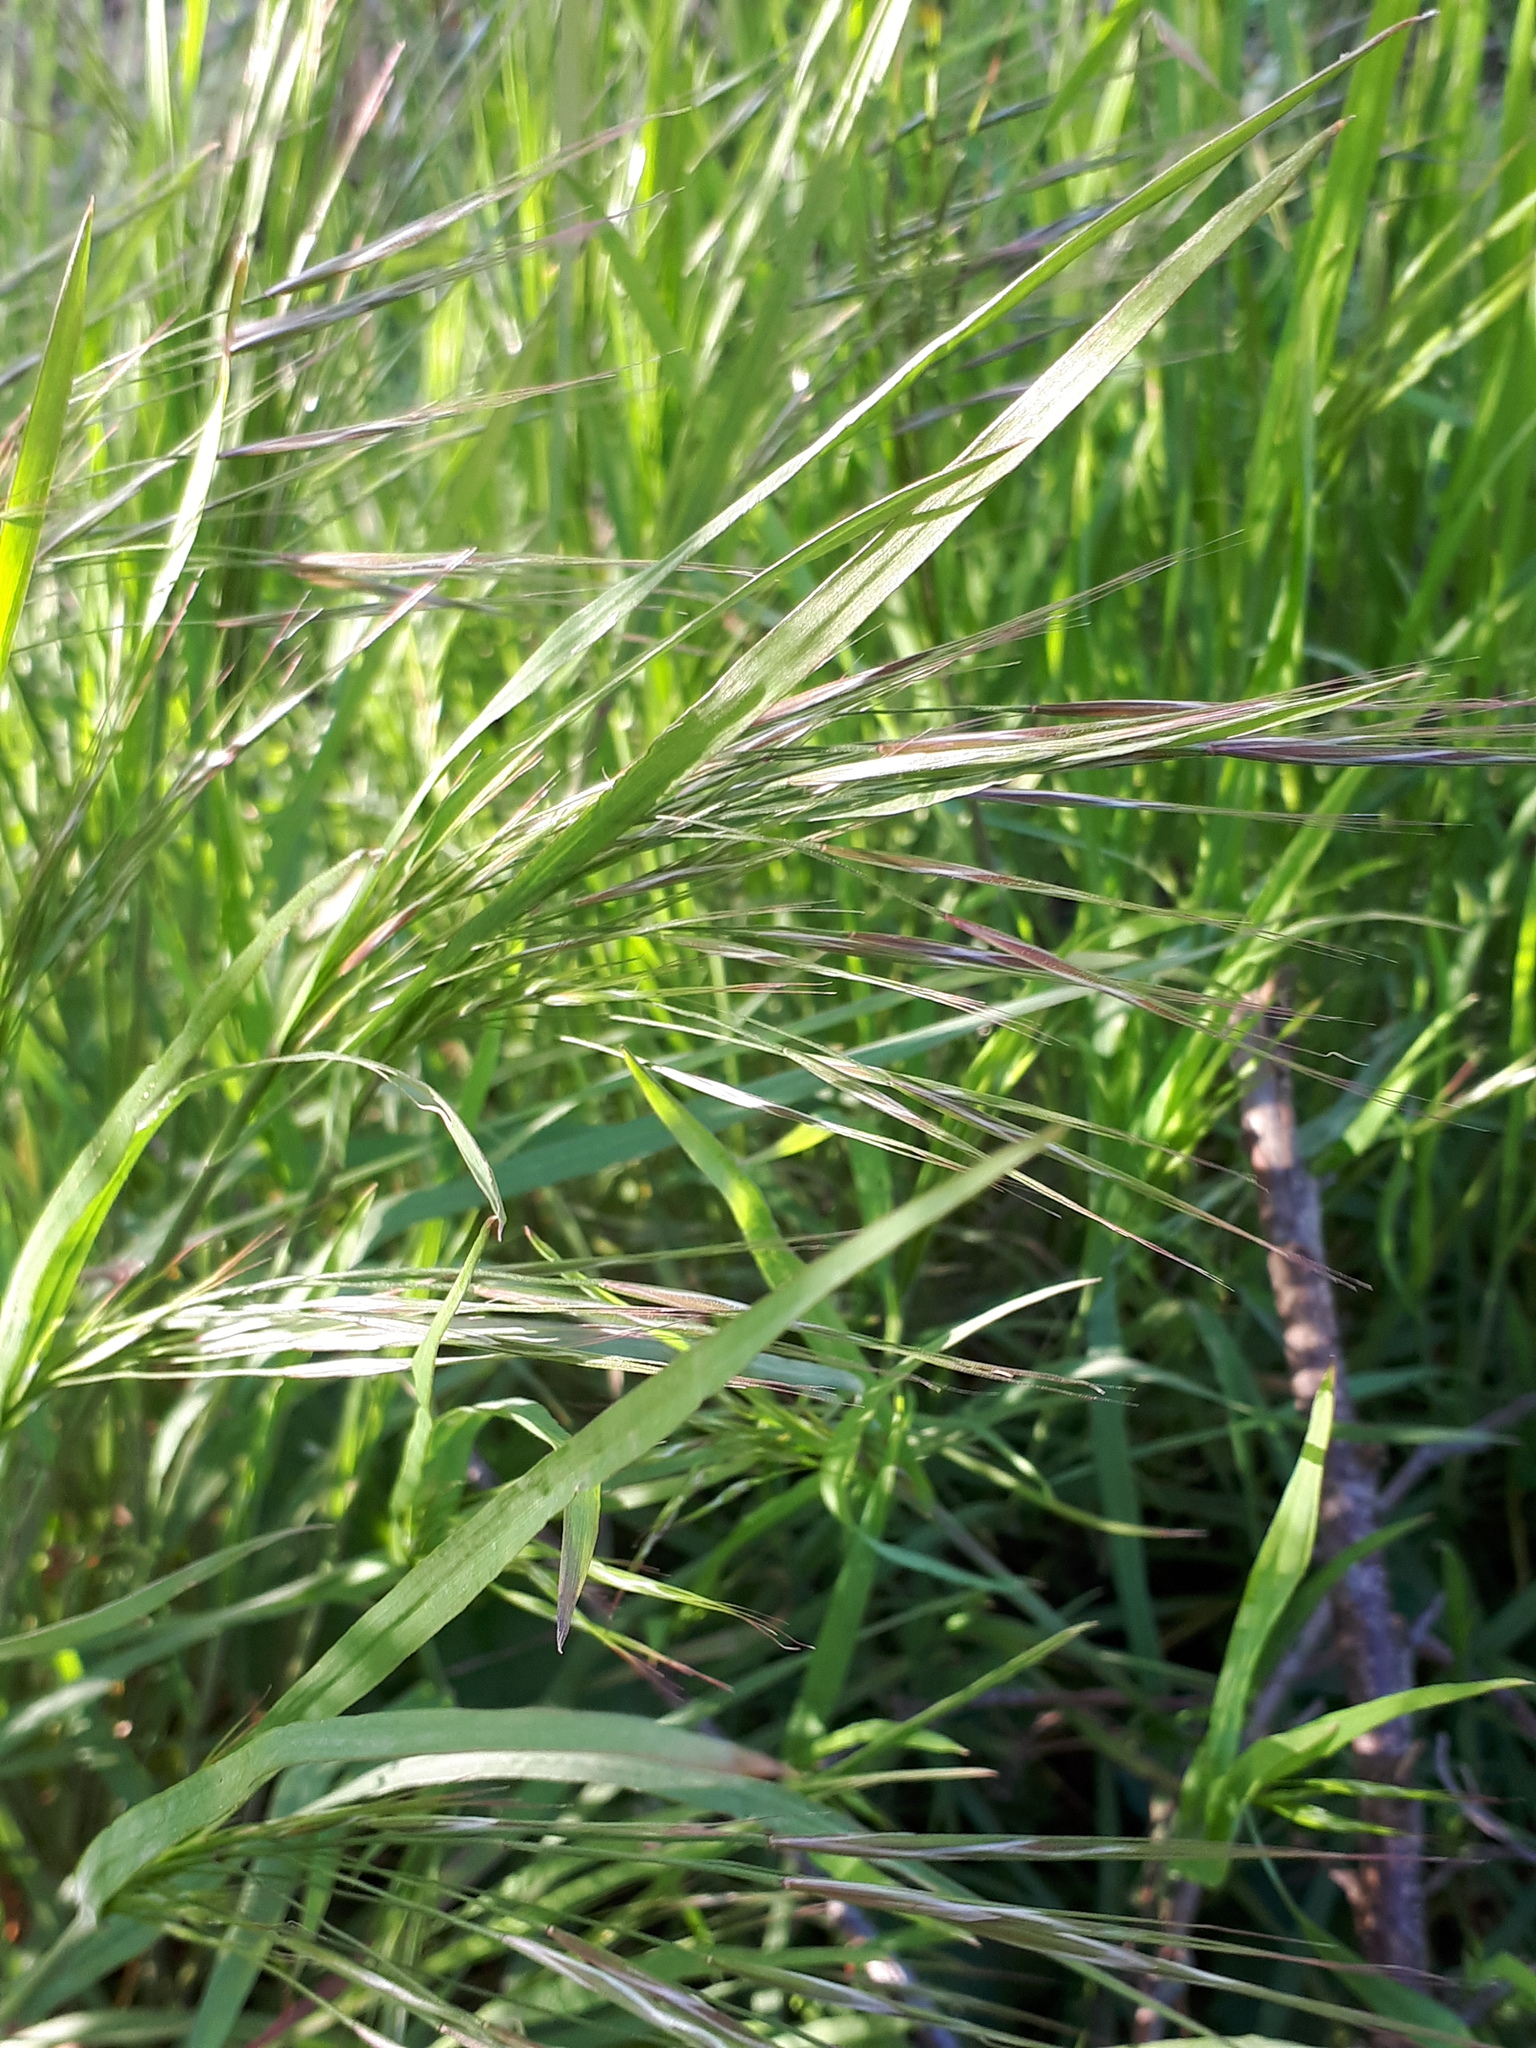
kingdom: Plantae
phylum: Tracheophyta
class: Liliopsida
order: Poales
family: Poaceae
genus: Bromus
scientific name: Bromus sterilis
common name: Poverty brome
